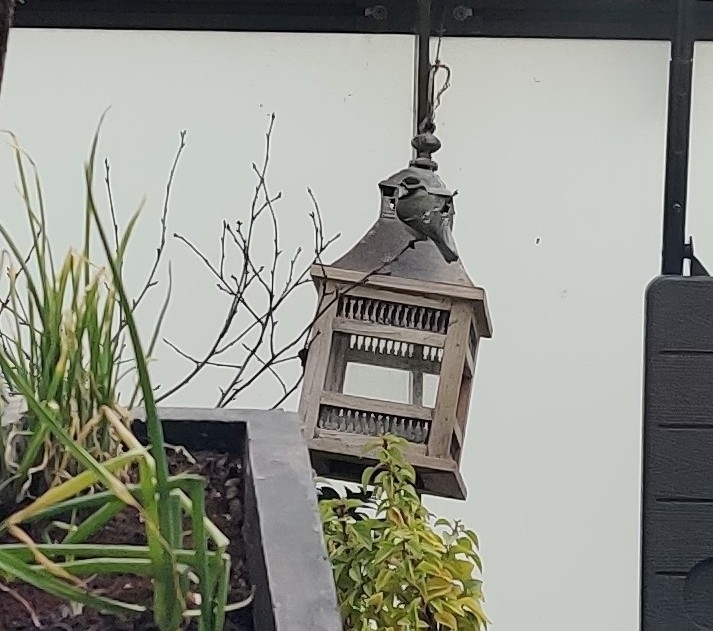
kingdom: Animalia
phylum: Chordata
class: Aves
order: Passeriformes
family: Paridae
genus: Cyanistes
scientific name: Cyanistes caeruleus
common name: Eurasian blue tit
